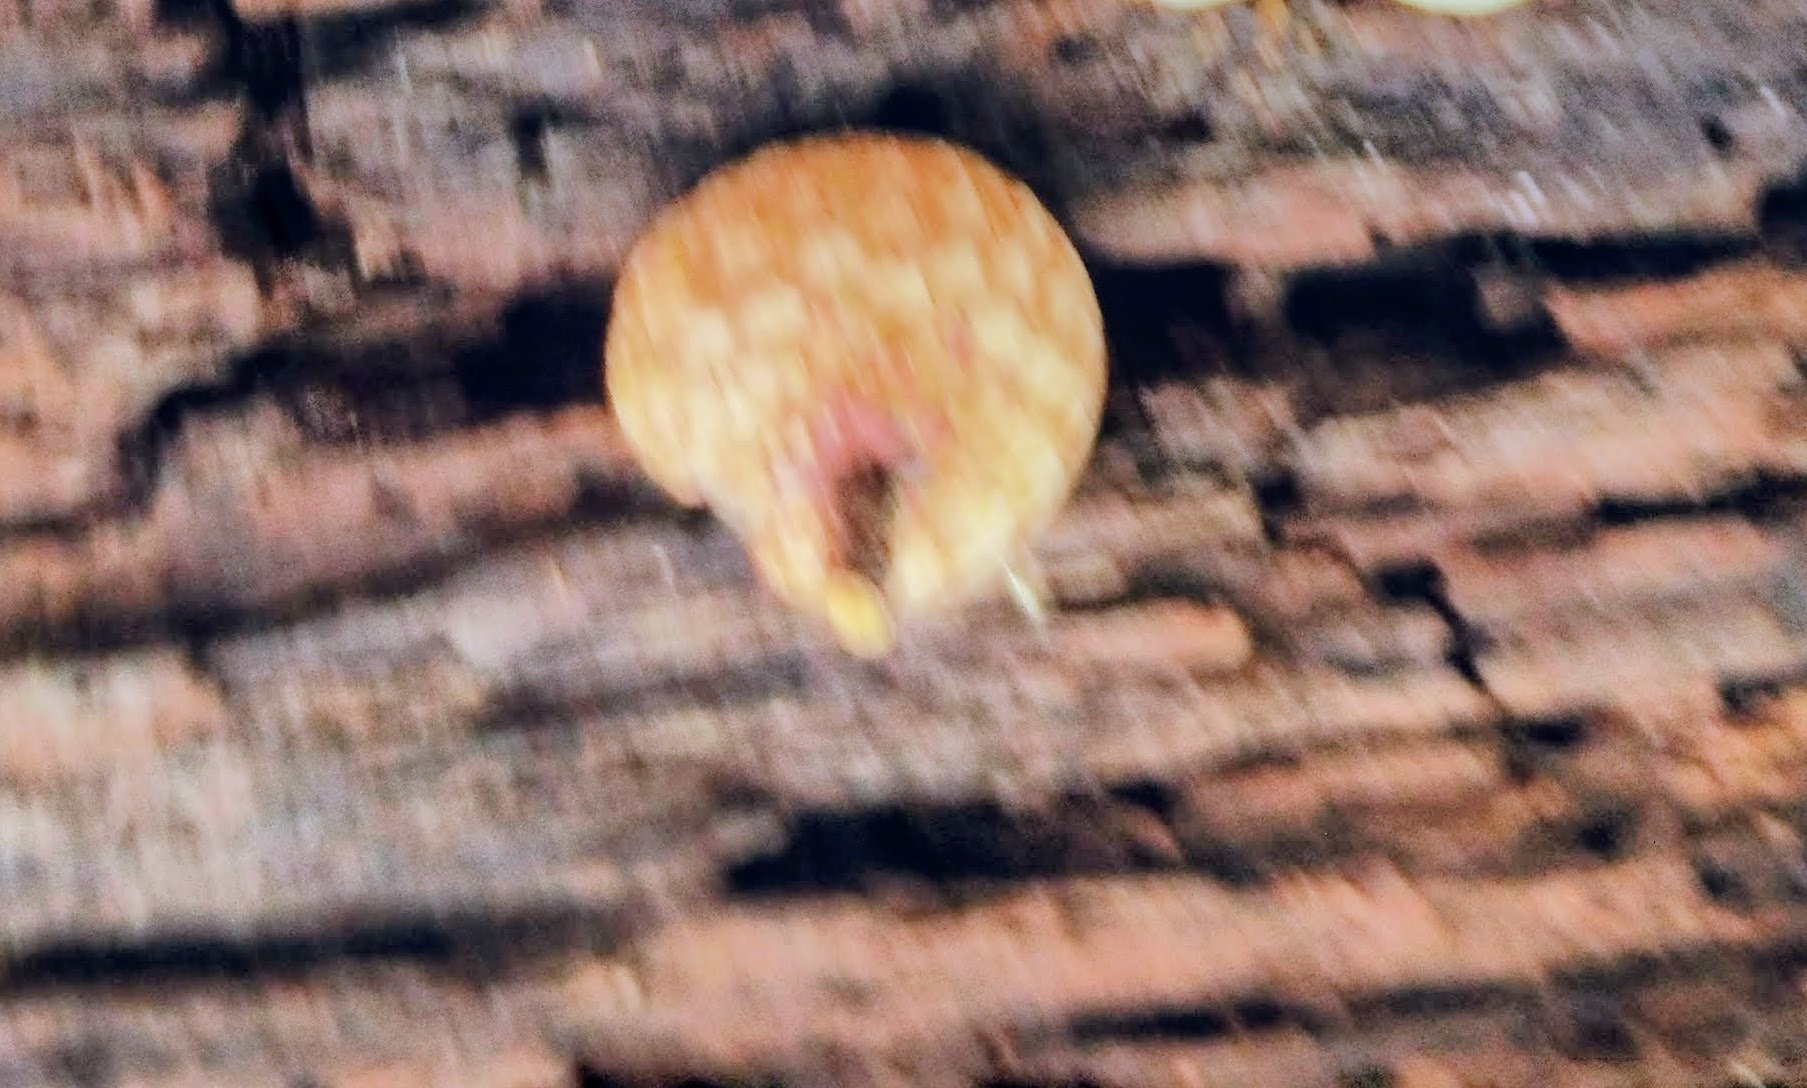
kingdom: Fungi
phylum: Basidiomycota
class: Agaricomycetes
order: Agaricales
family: Physalacriaceae
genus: Rhodotus
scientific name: Rhodotus palmatus
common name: Wrinkled peach
